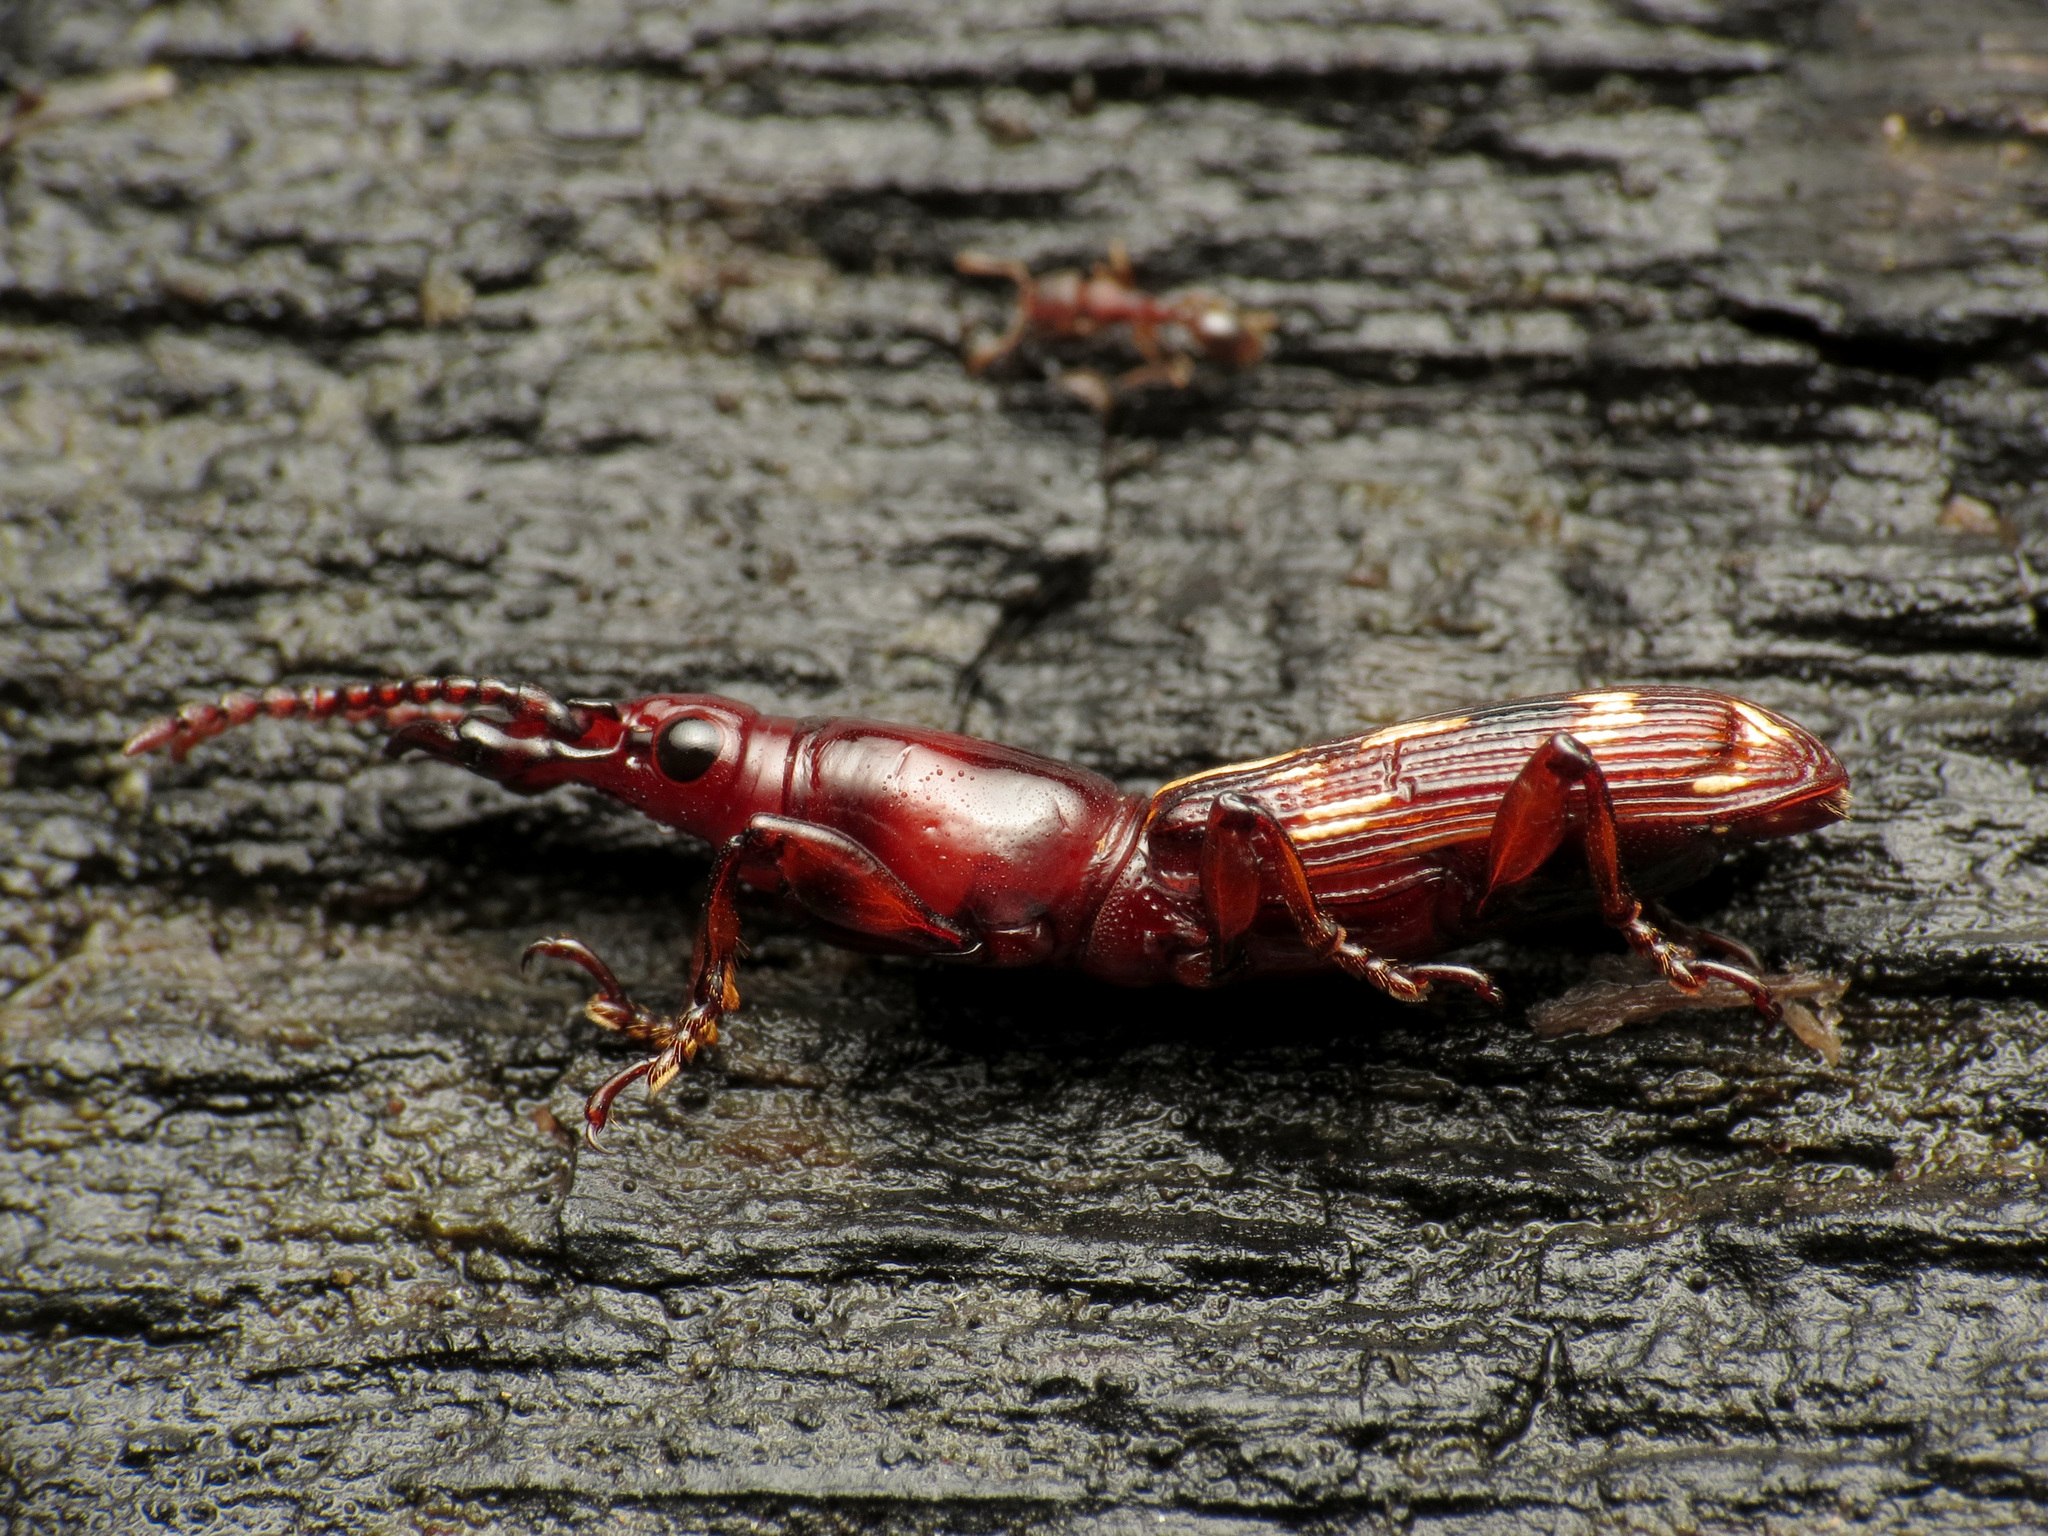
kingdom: Animalia
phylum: Arthropoda
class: Insecta
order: Coleoptera
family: Brentidae
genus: Arrenodes
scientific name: Arrenodes minutus
